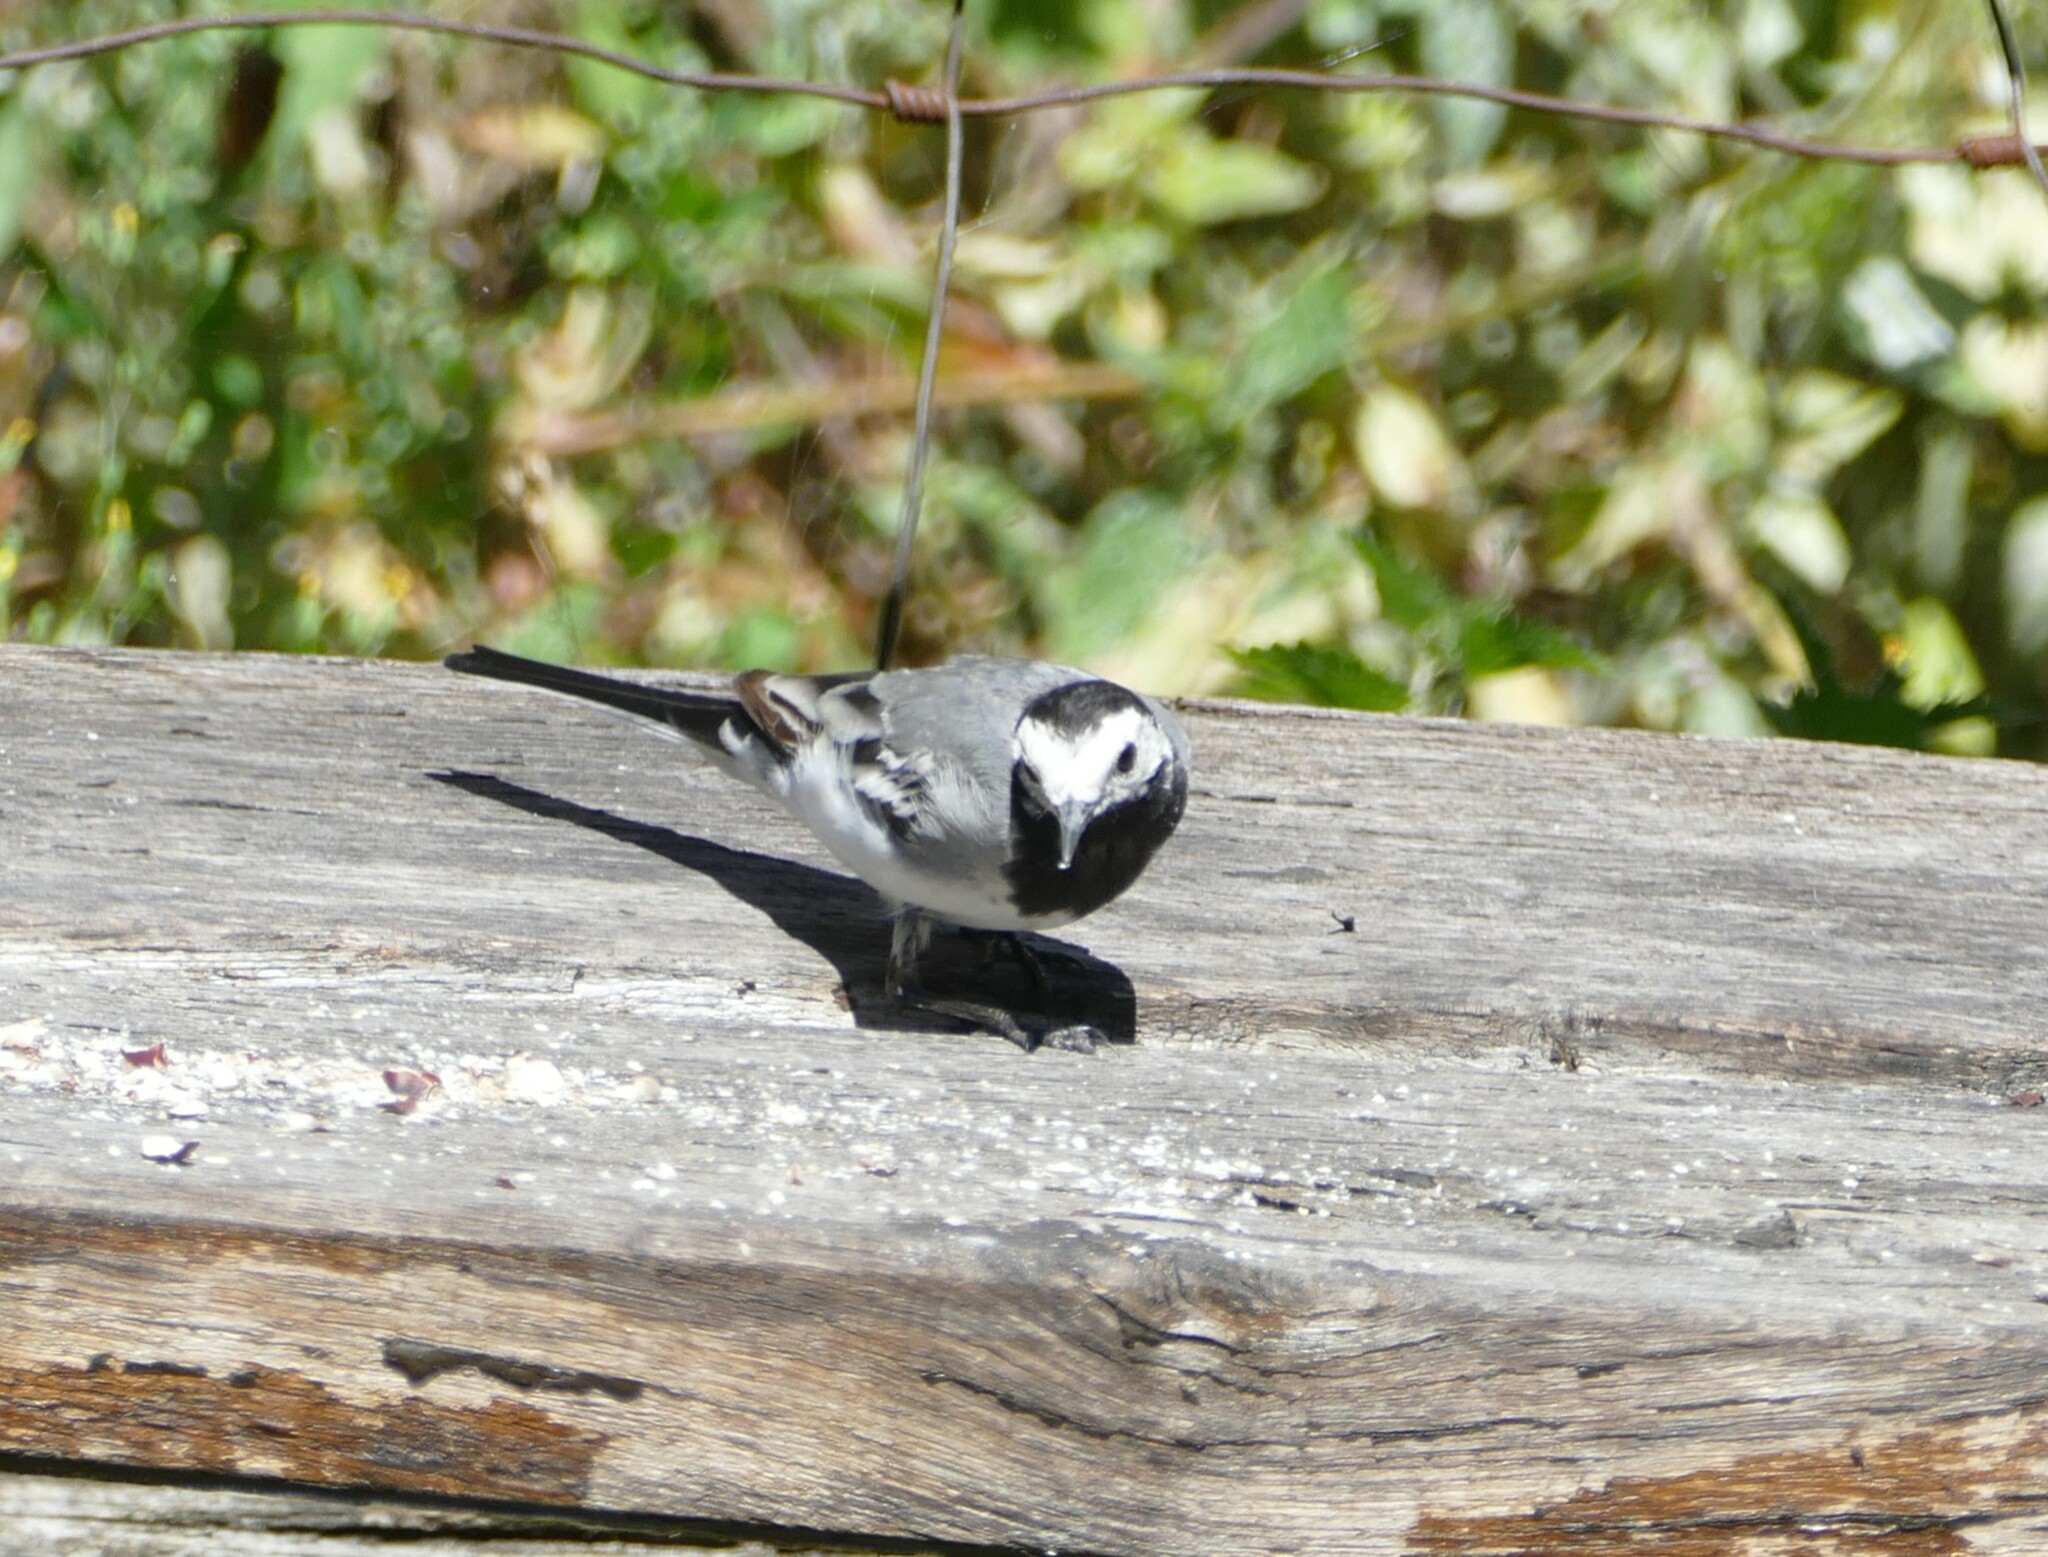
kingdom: Animalia
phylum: Chordata
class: Aves
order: Passeriformes
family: Motacillidae
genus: Motacilla
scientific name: Motacilla alba
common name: White wagtail
